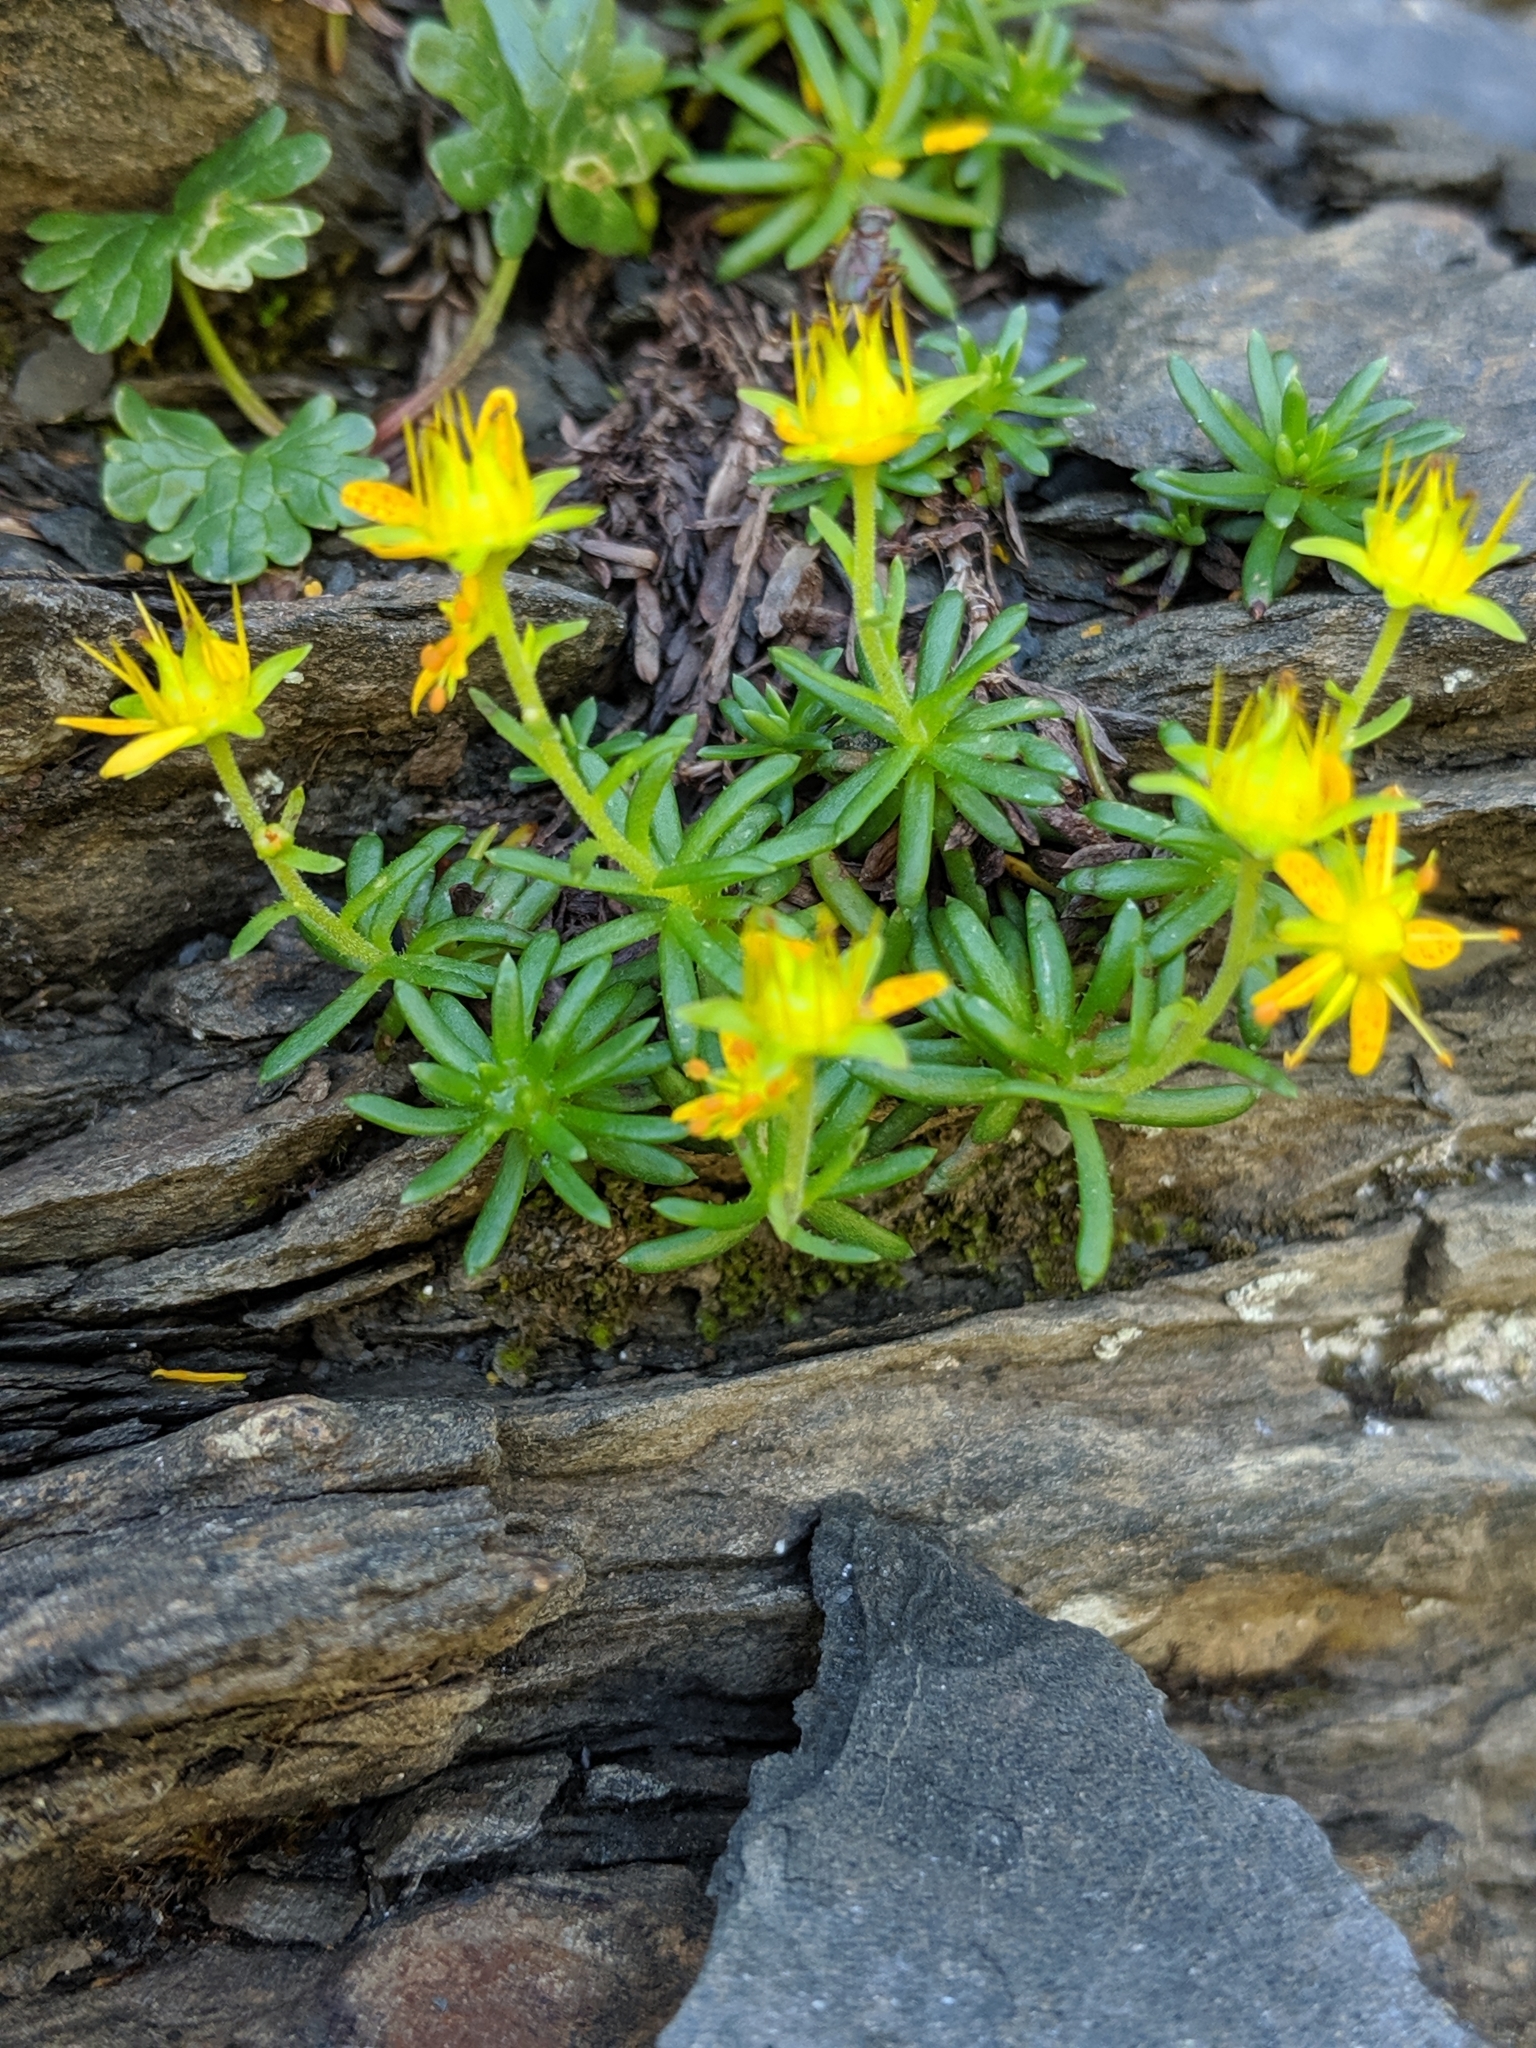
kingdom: Plantae
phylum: Tracheophyta
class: Magnoliopsida
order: Saxifragales
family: Saxifragaceae
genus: Saxifraga
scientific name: Saxifraga aizoides
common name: Yellow mountain saxifrage
